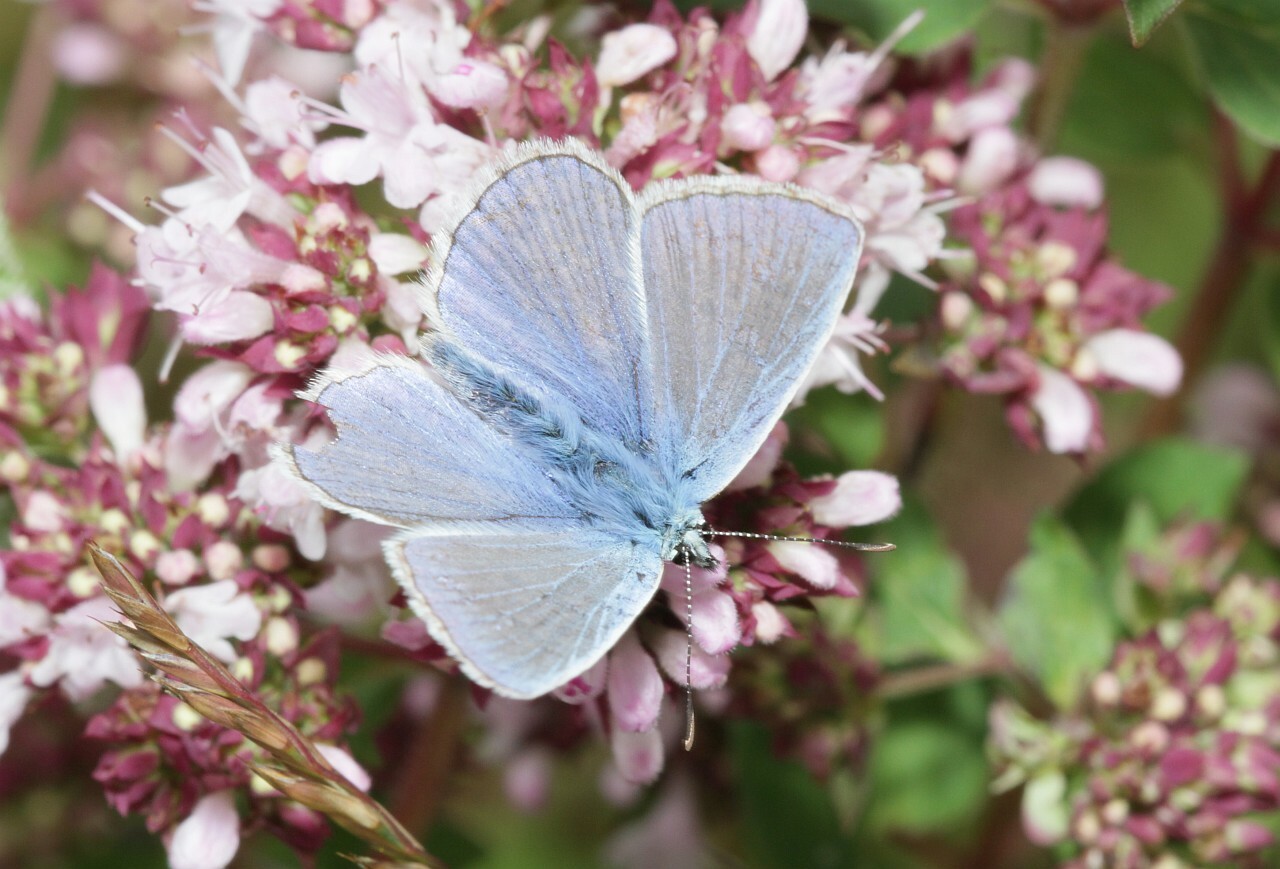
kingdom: Animalia
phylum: Arthropoda
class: Insecta
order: Lepidoptera
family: Lycaenidae
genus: Polyommatus
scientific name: Polyommatus icarus
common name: Common blue
